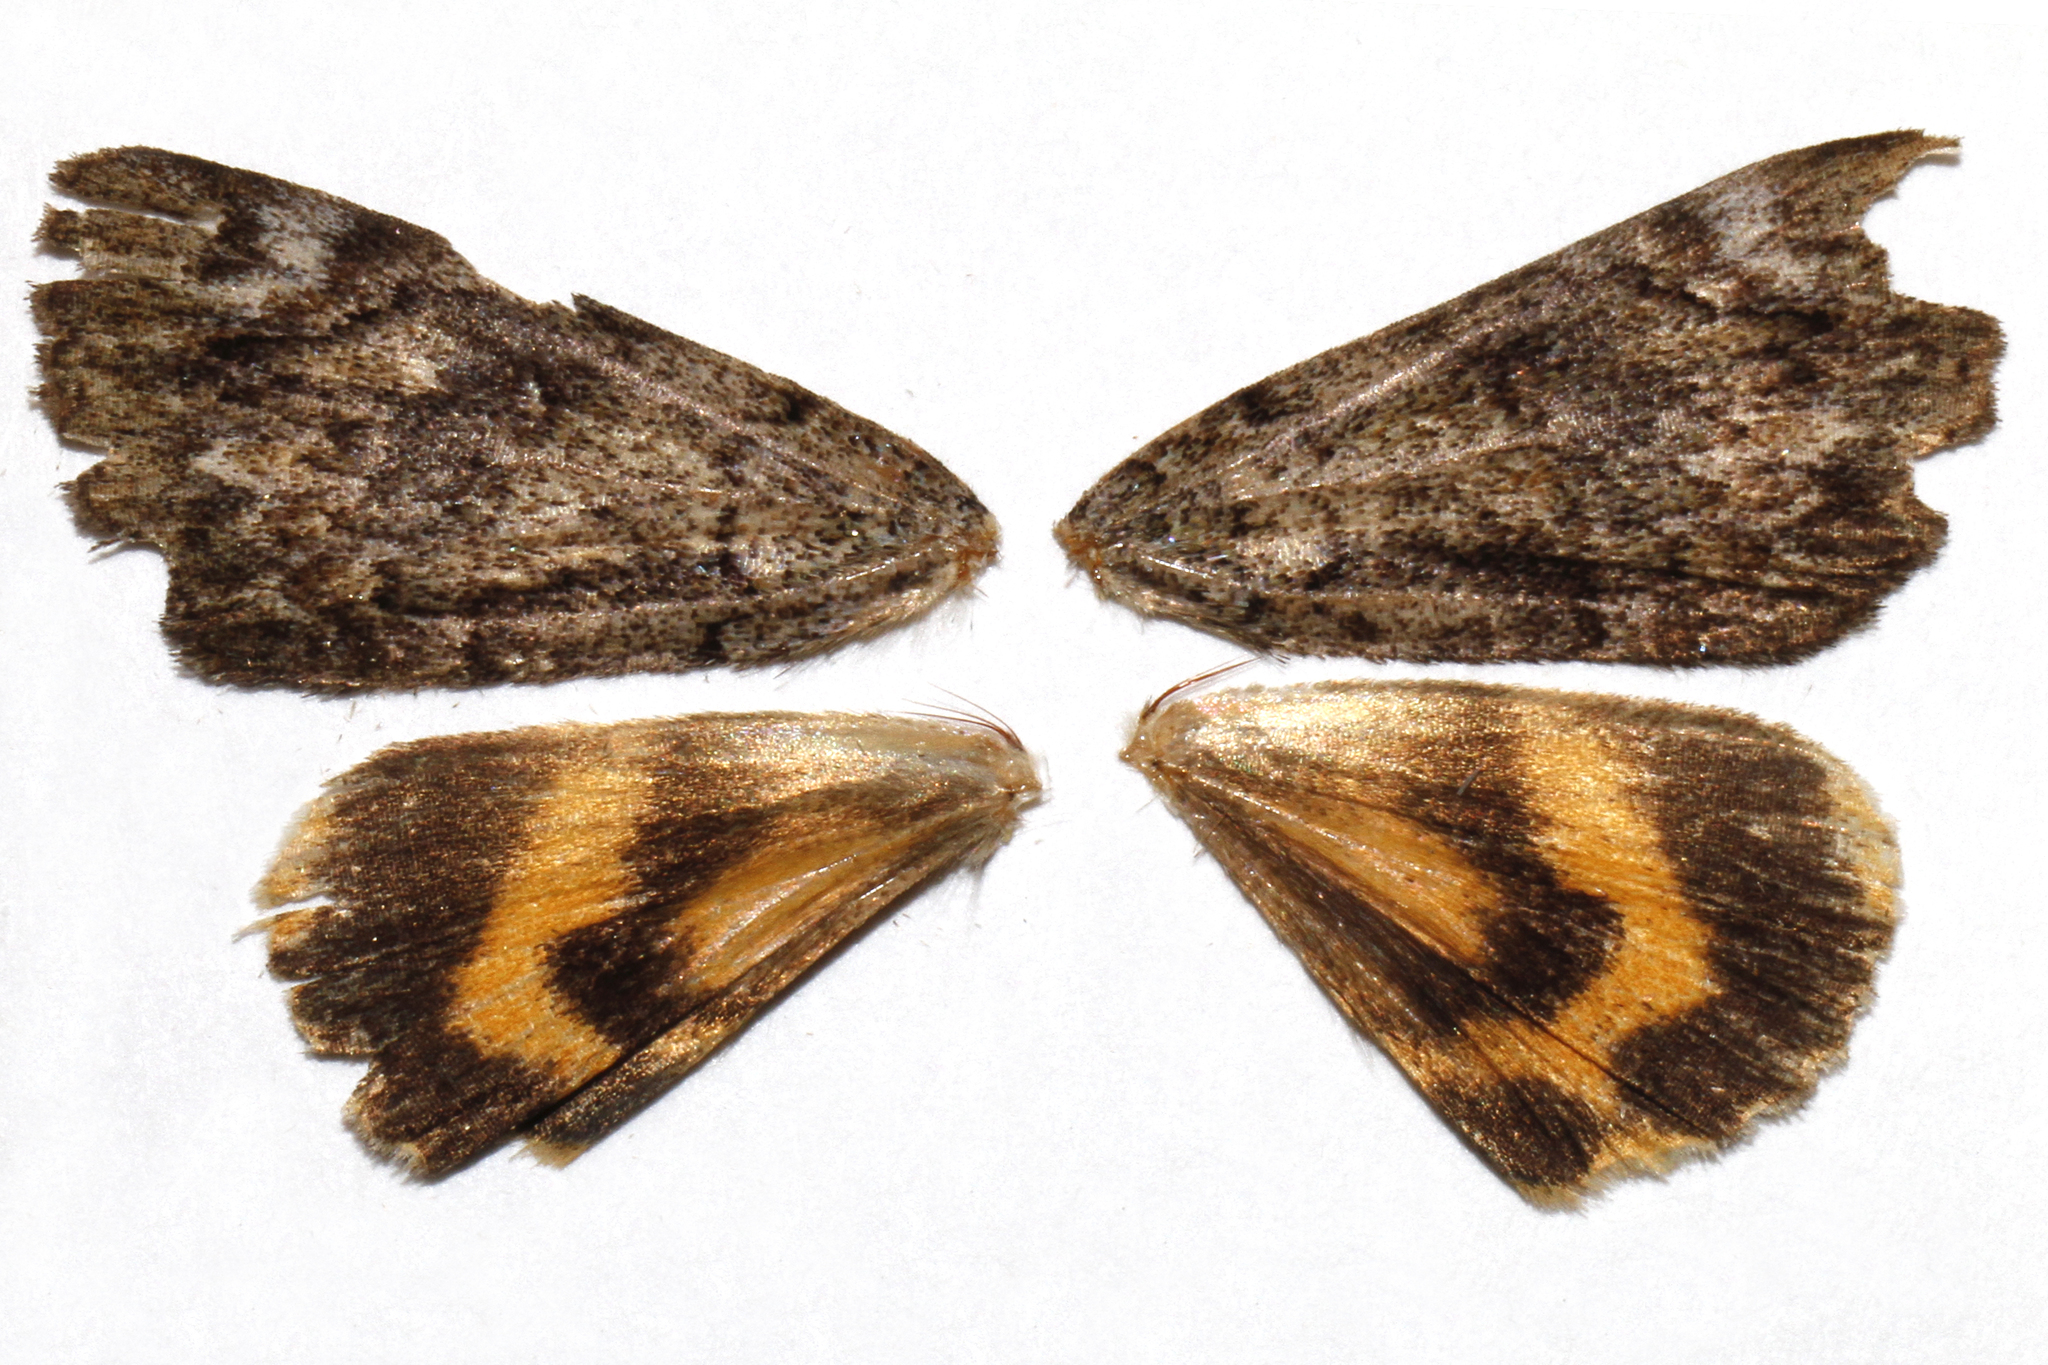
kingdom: Animalia
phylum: Arthropoda
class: Insecta
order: Lepidoptera
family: Erebidae
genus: Catocala
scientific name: Catocala minuta
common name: Little underwing
